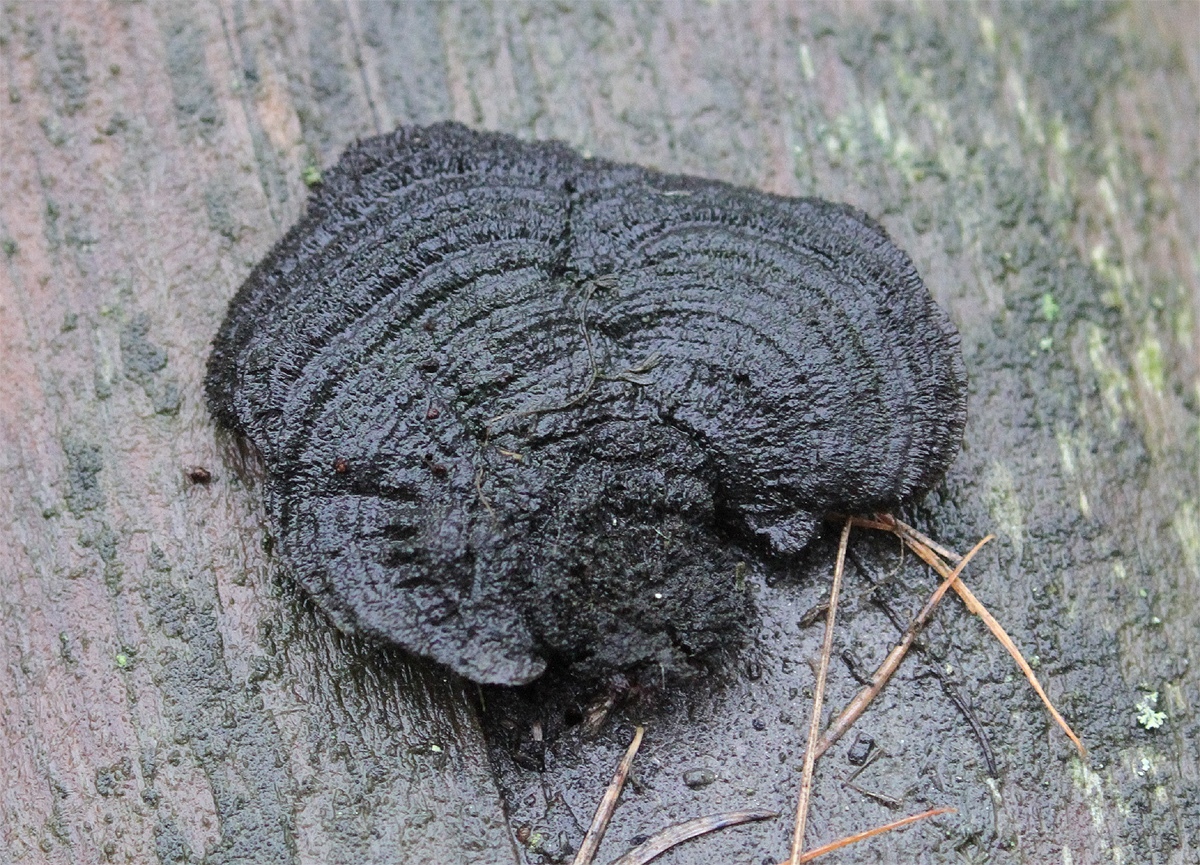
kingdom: Fungi
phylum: Basidiomycota
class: Agaricomycetes
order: Gloeophyllales
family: Gloeophyllaceae
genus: Gloeophyllum
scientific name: Gloeophyllum sepiarium
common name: Conifer mazegill
